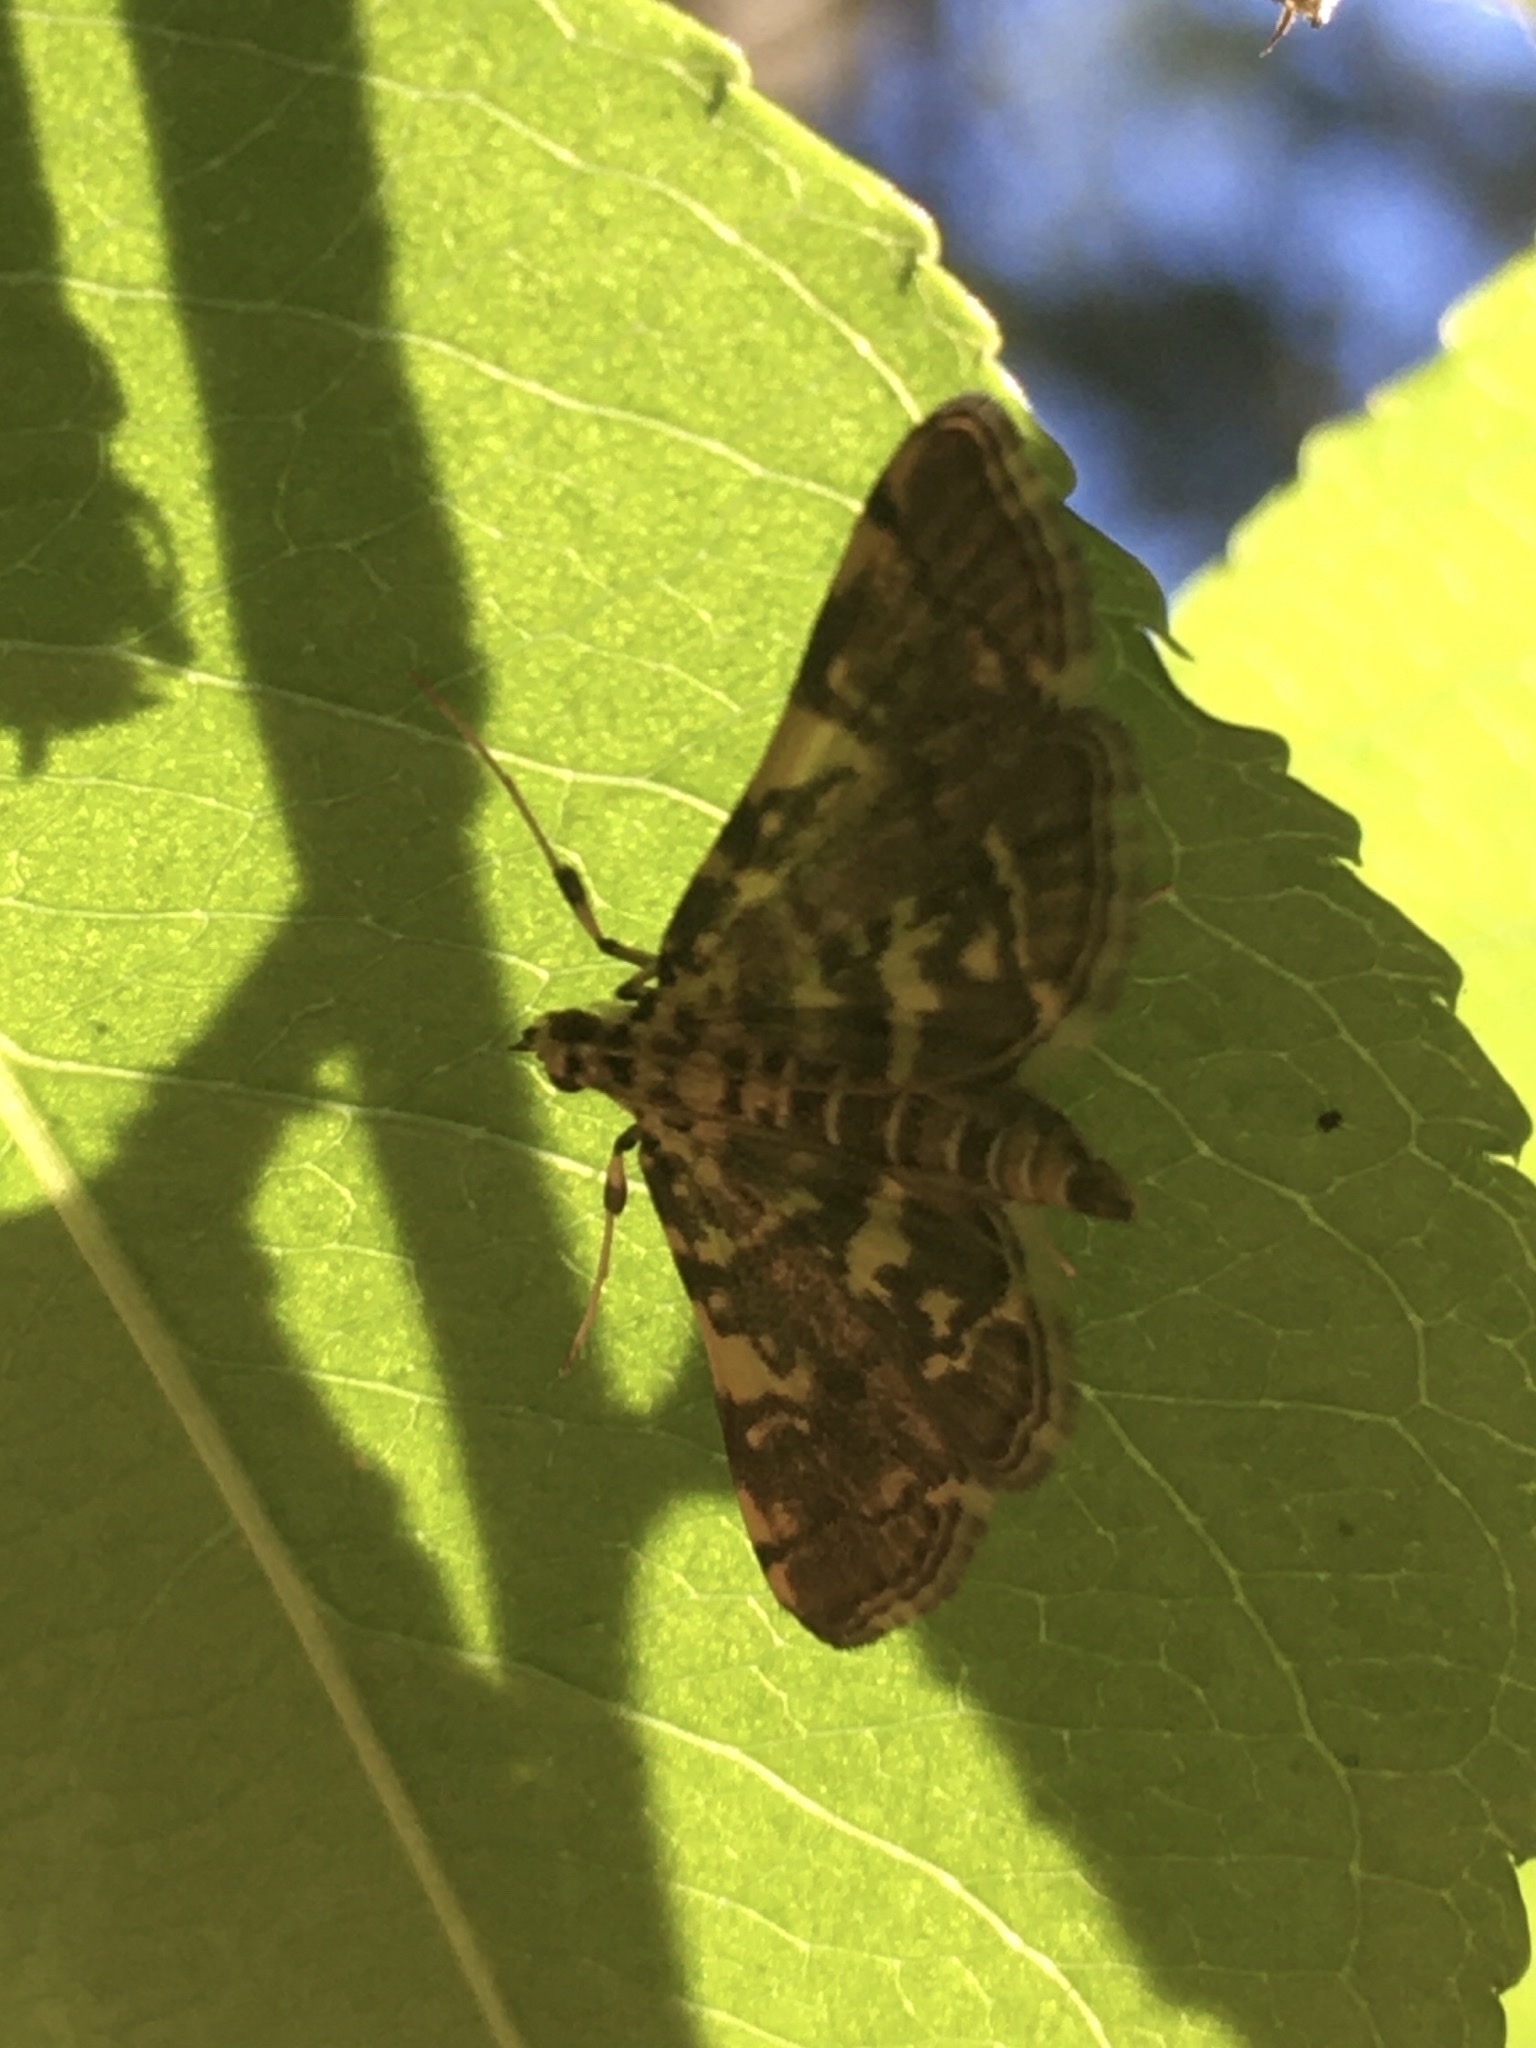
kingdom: Animalia
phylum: Arthropoda
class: Insecta
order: Lepidoptera
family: Crambidae
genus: Apogeshna
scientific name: Apogeshna stenialis
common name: Checkered apogeshna moth
